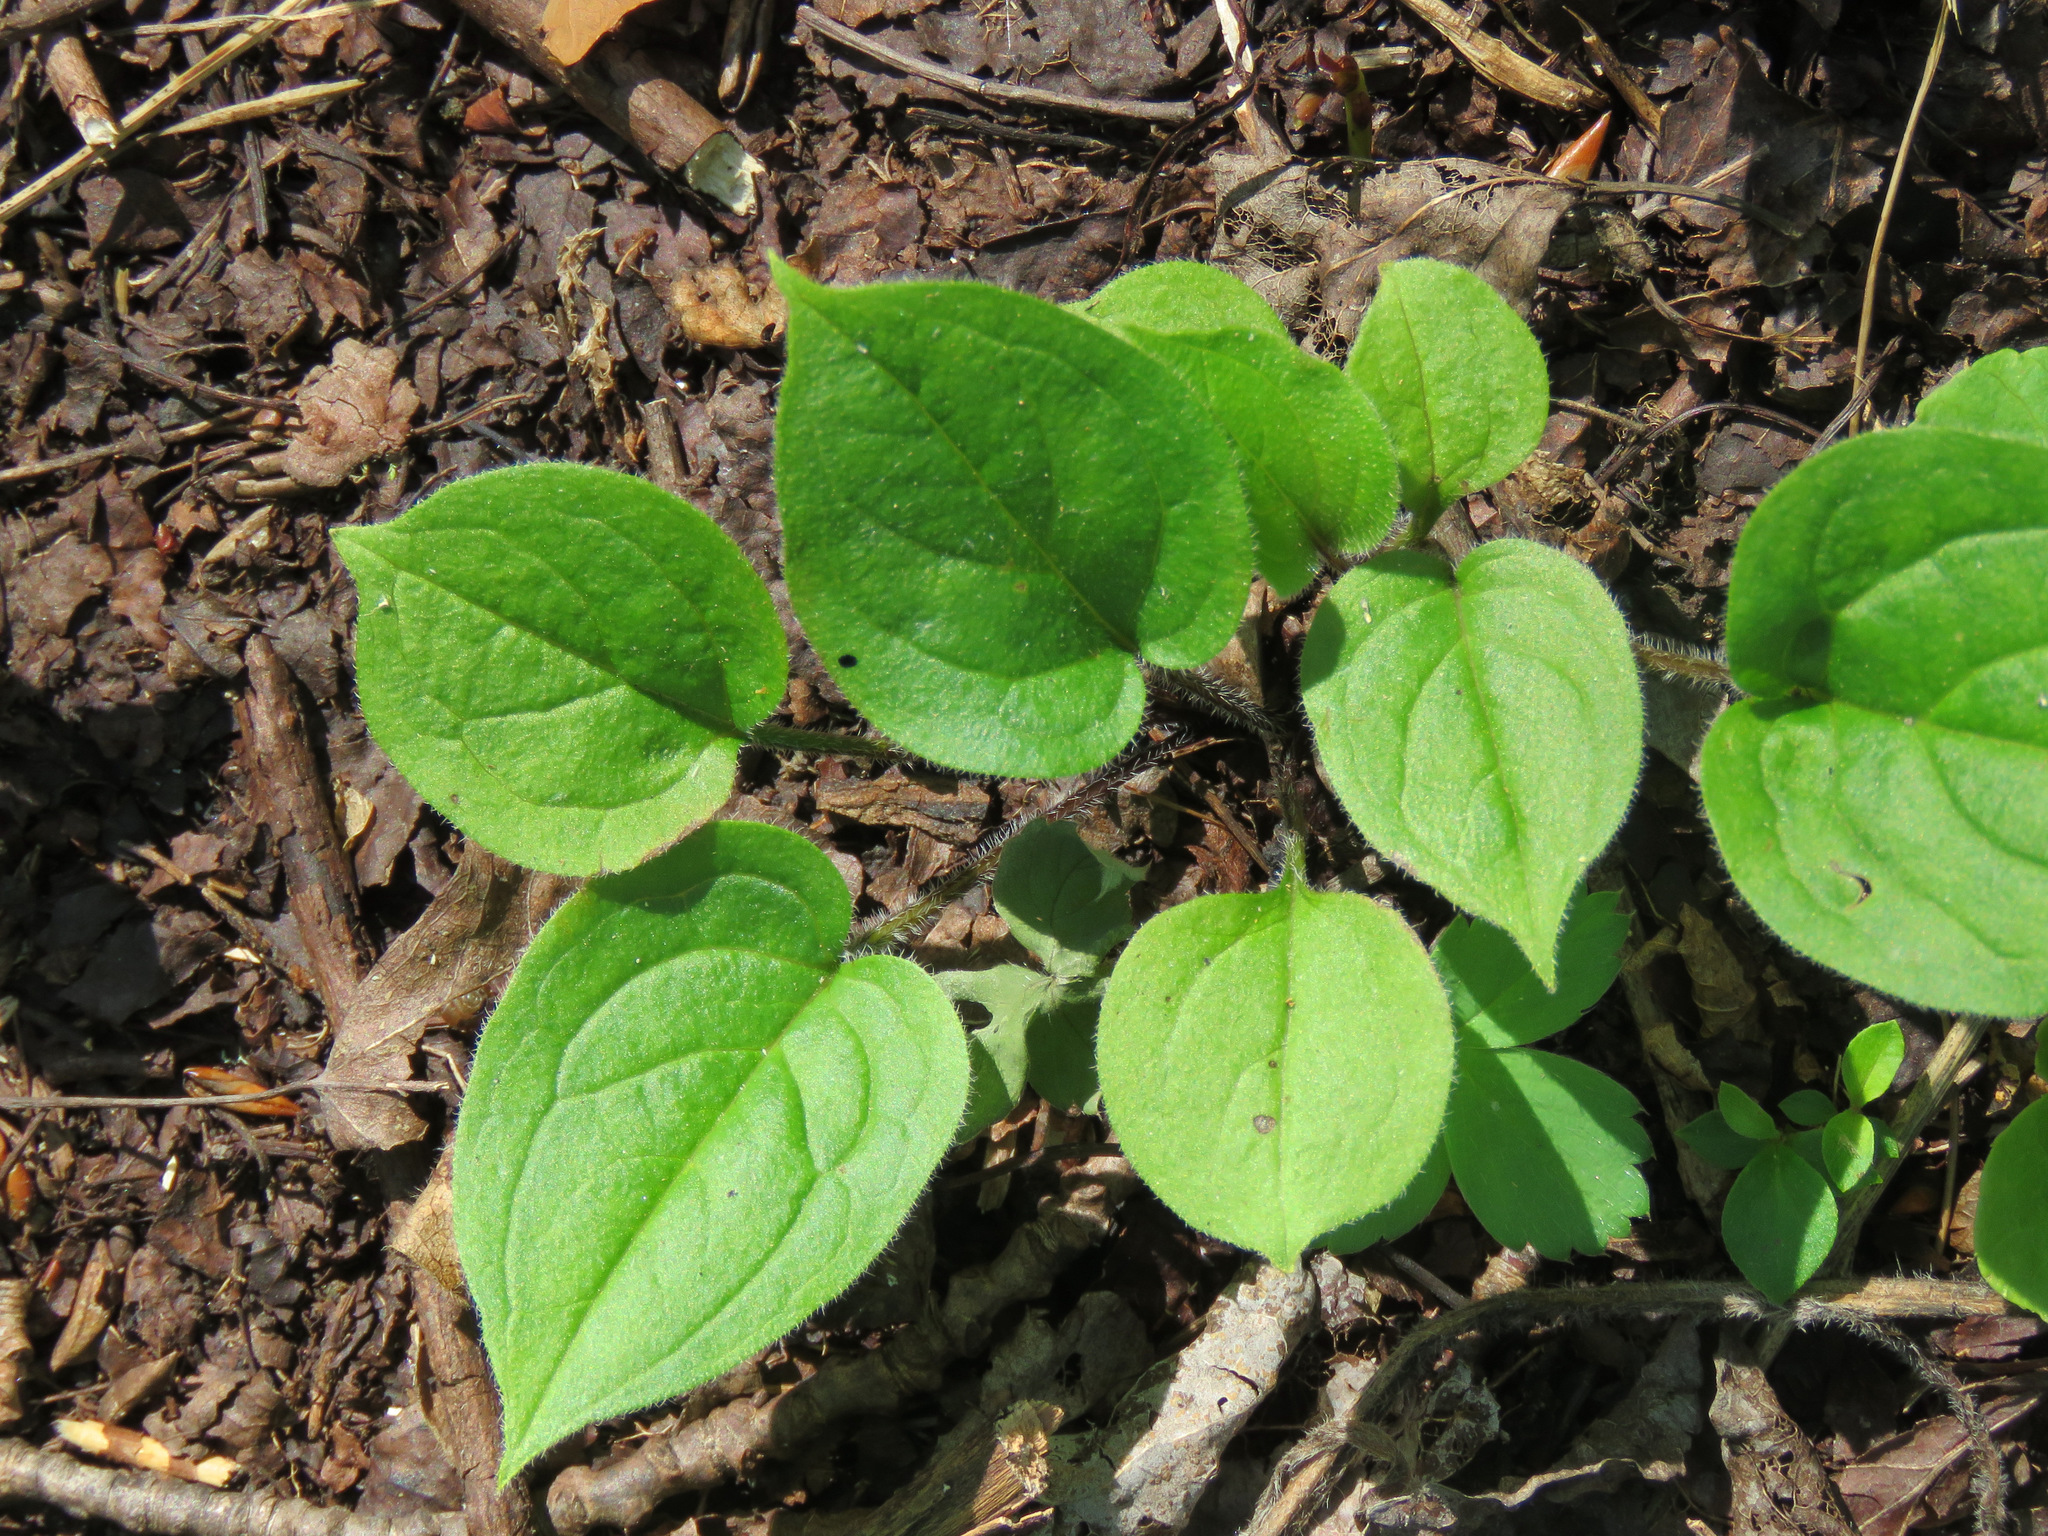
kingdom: Plantae
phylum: Tracheophyta
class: Magnoliopsida
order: Boraginales
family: Boraginaceae
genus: Mertensia
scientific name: Mertensia paniculata
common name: Panicled bluebells
